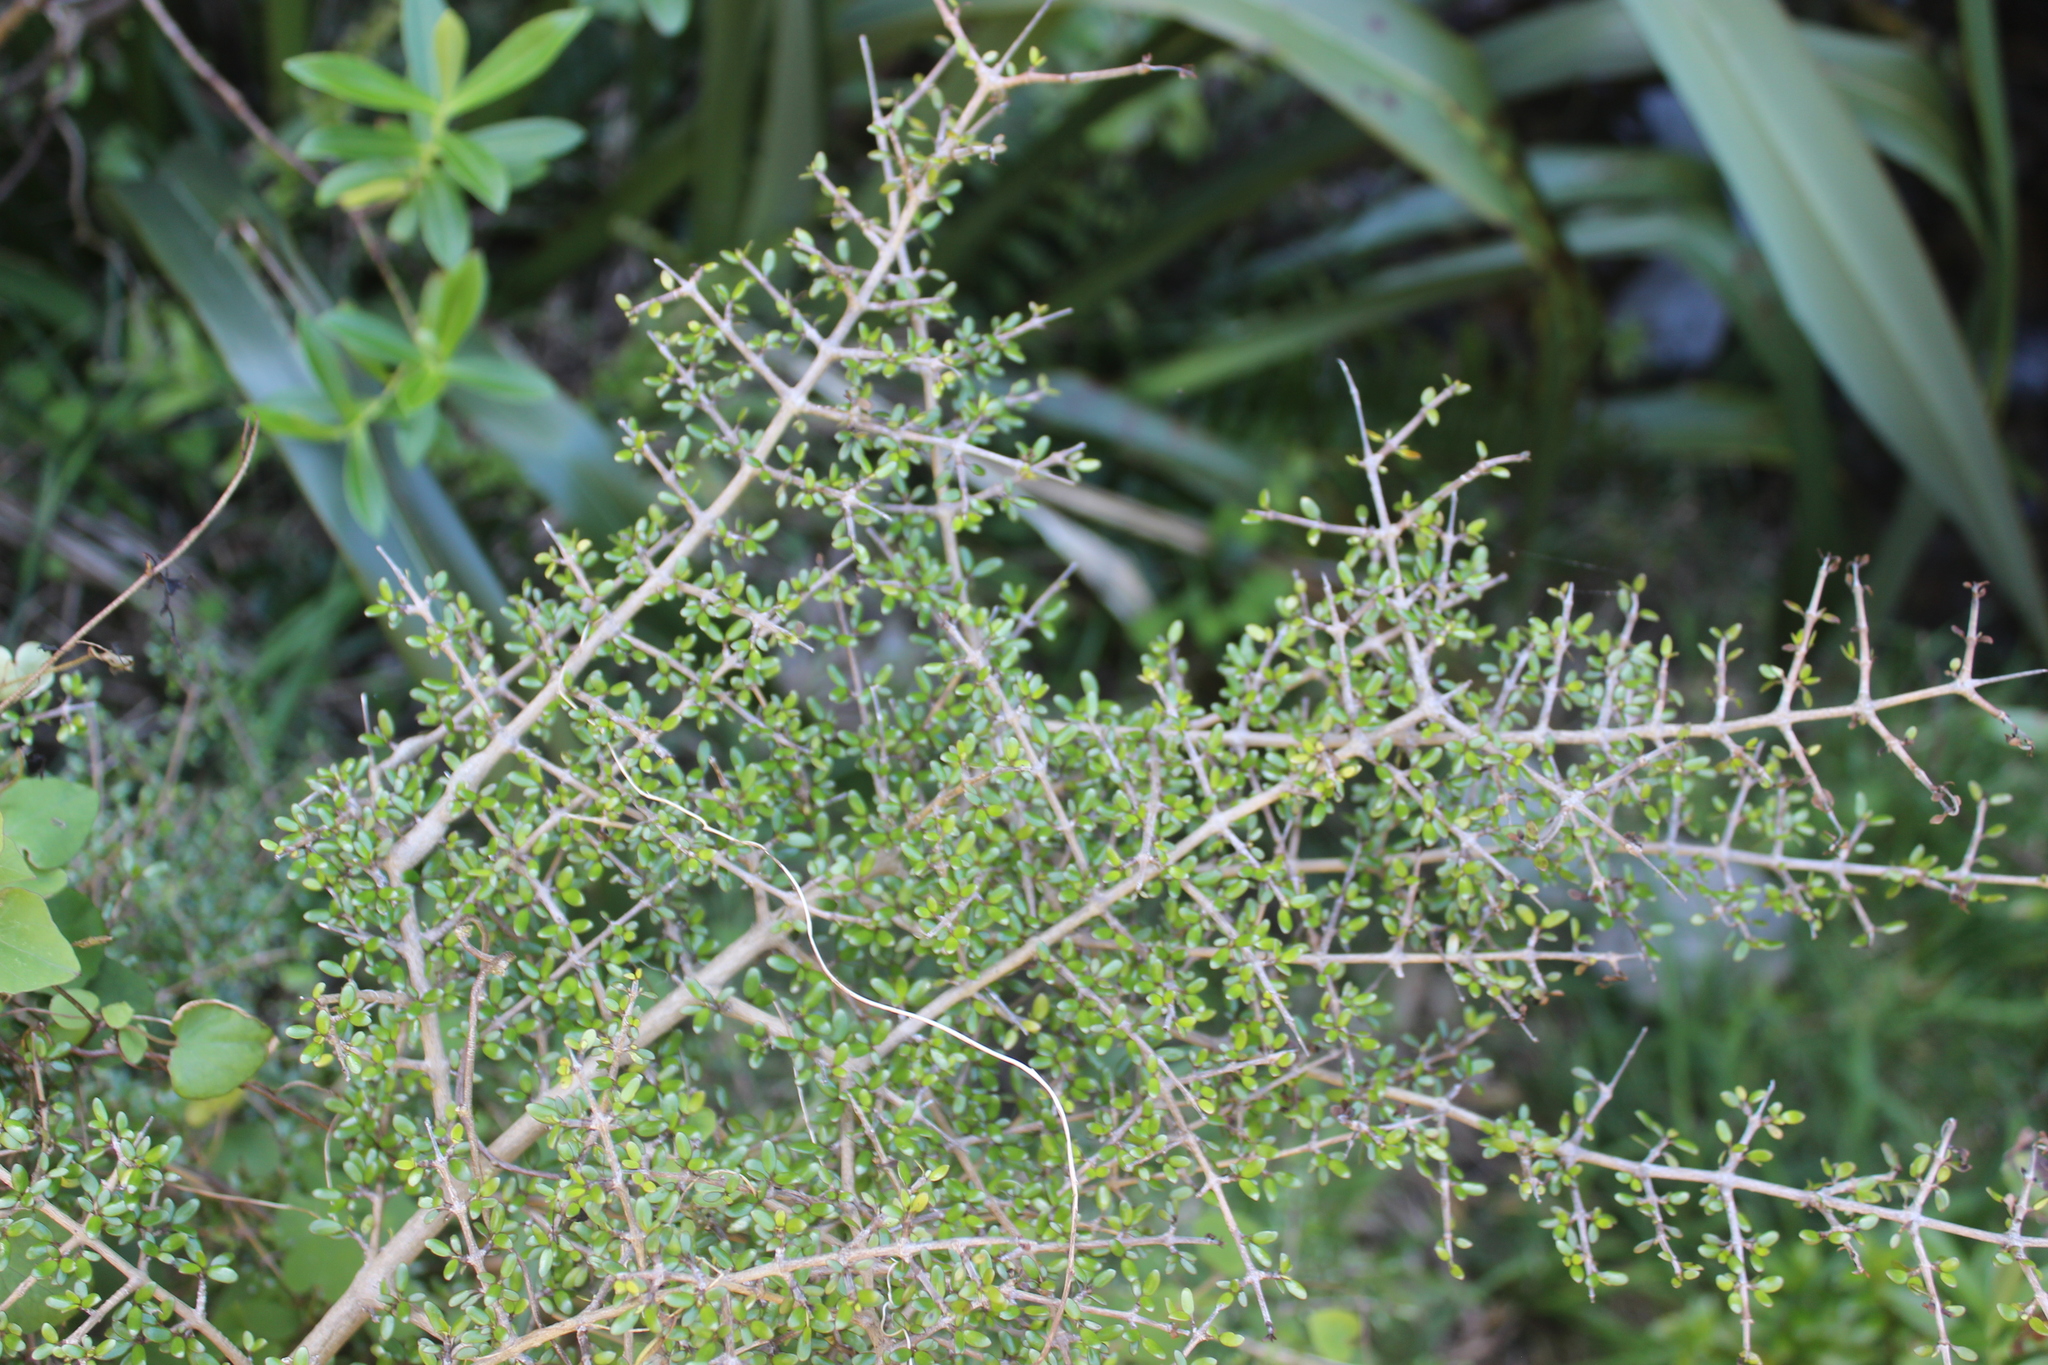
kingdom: Plantae
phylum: Tracheophyta
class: Magnoliopsida
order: Gentianales
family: Rubiaceae
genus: Coprosma
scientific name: Coprosma propinqua
